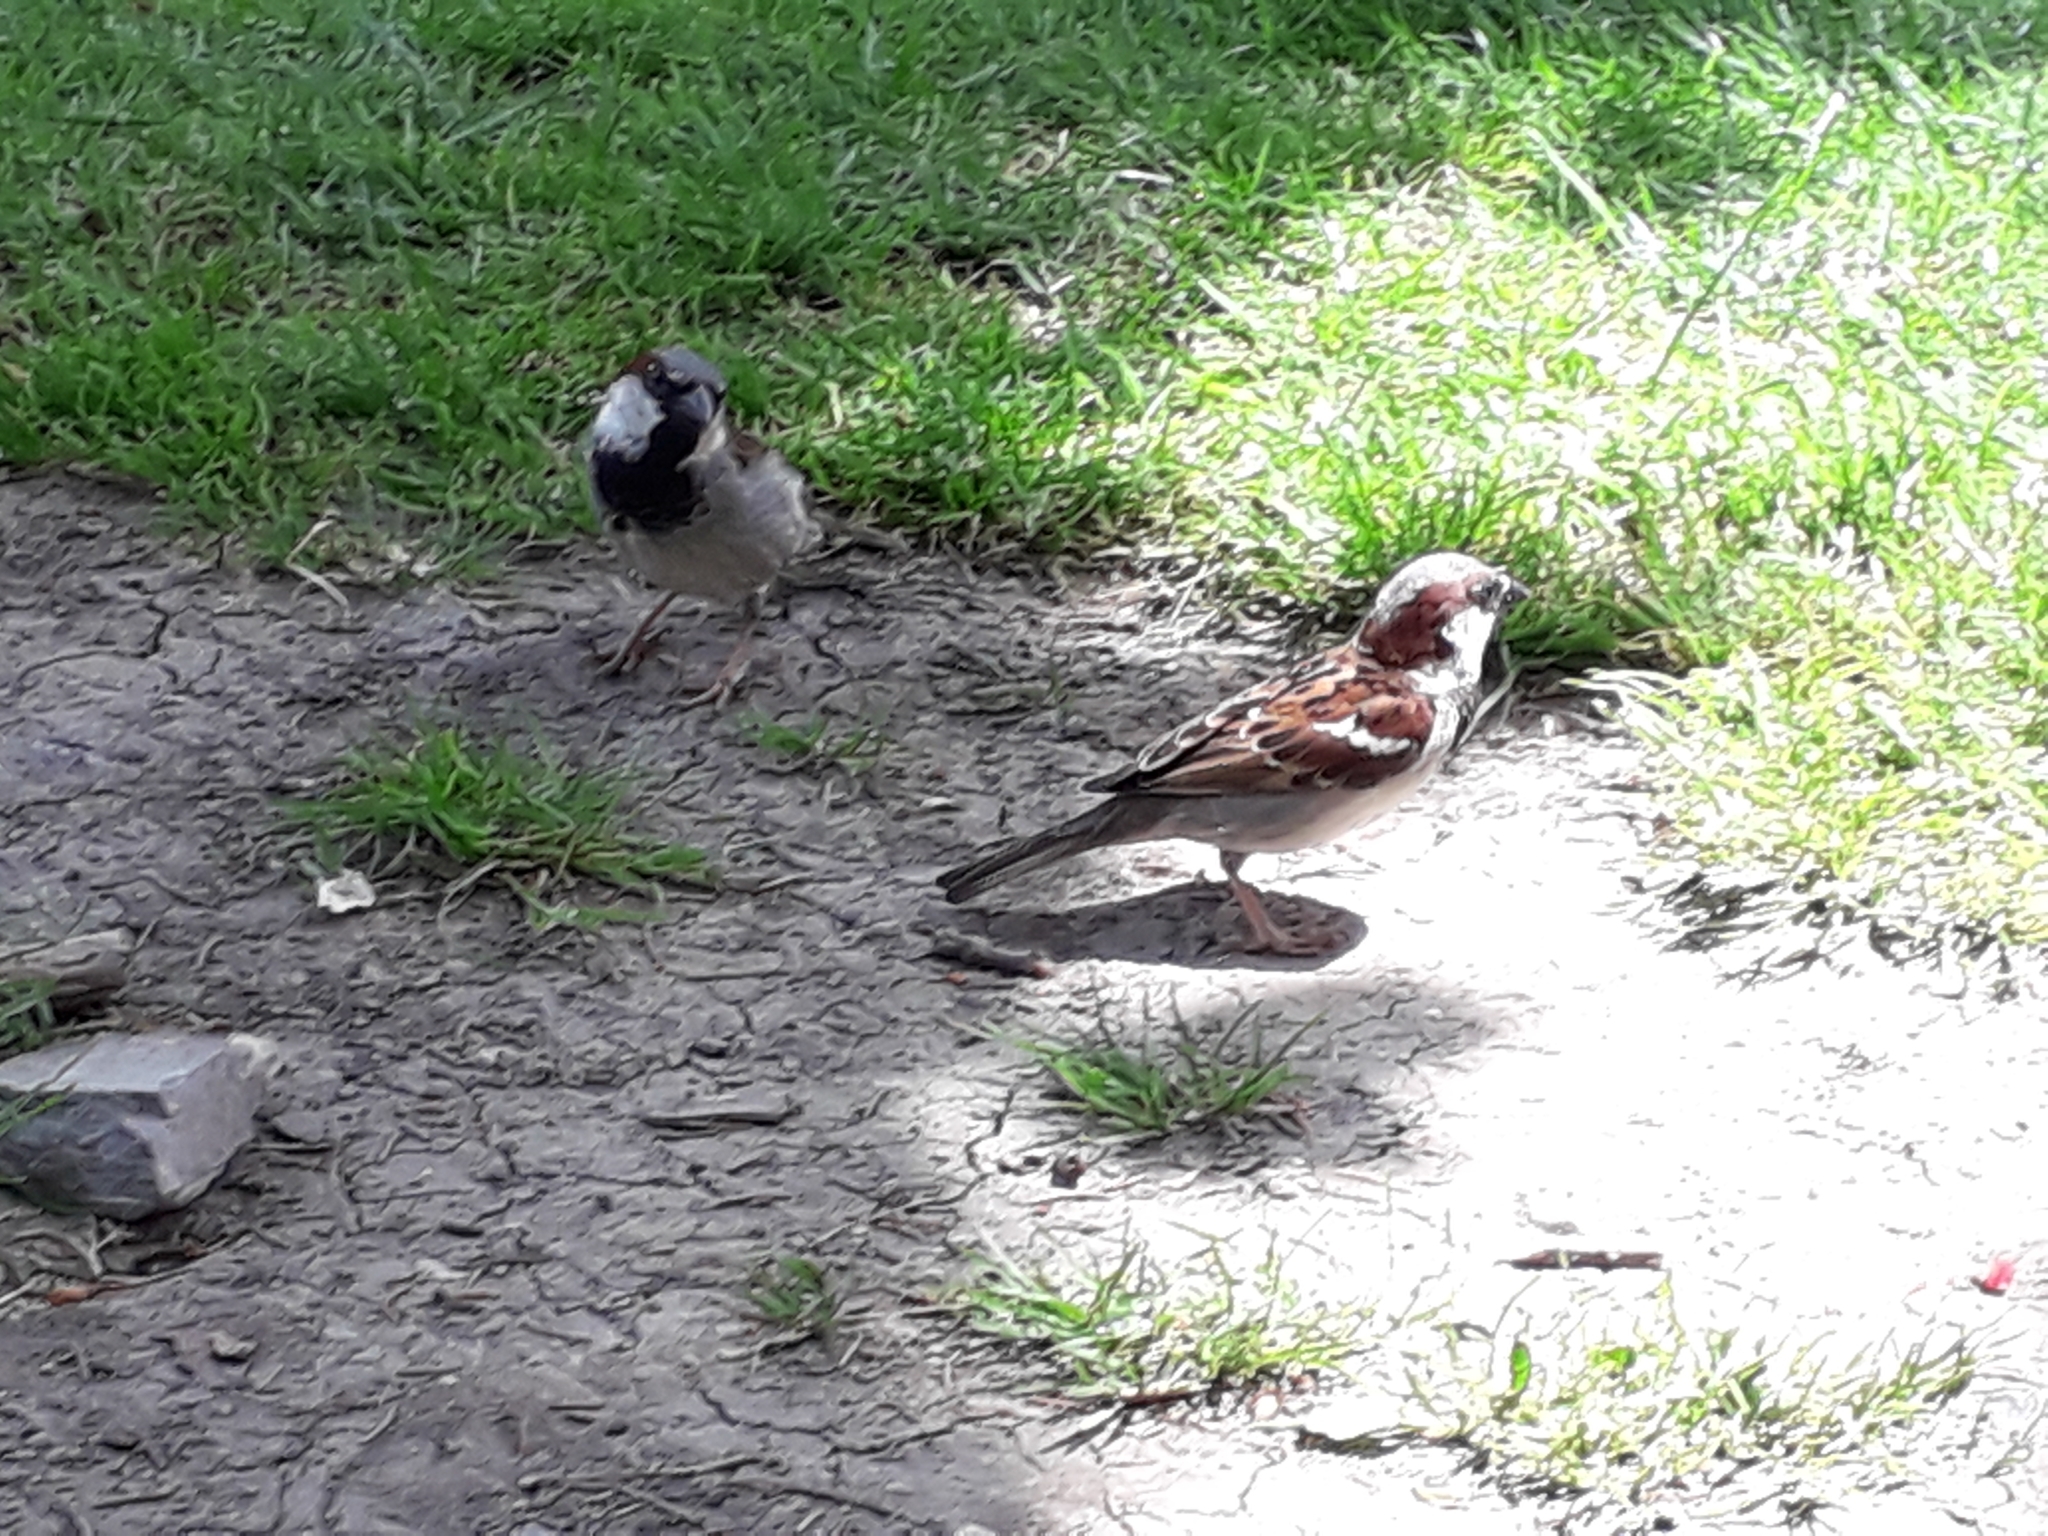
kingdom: Animalia
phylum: Chordata
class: Aves
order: Passeriformes
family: Passeridae
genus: Passer
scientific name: Passer domesticus
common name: House sparrow
